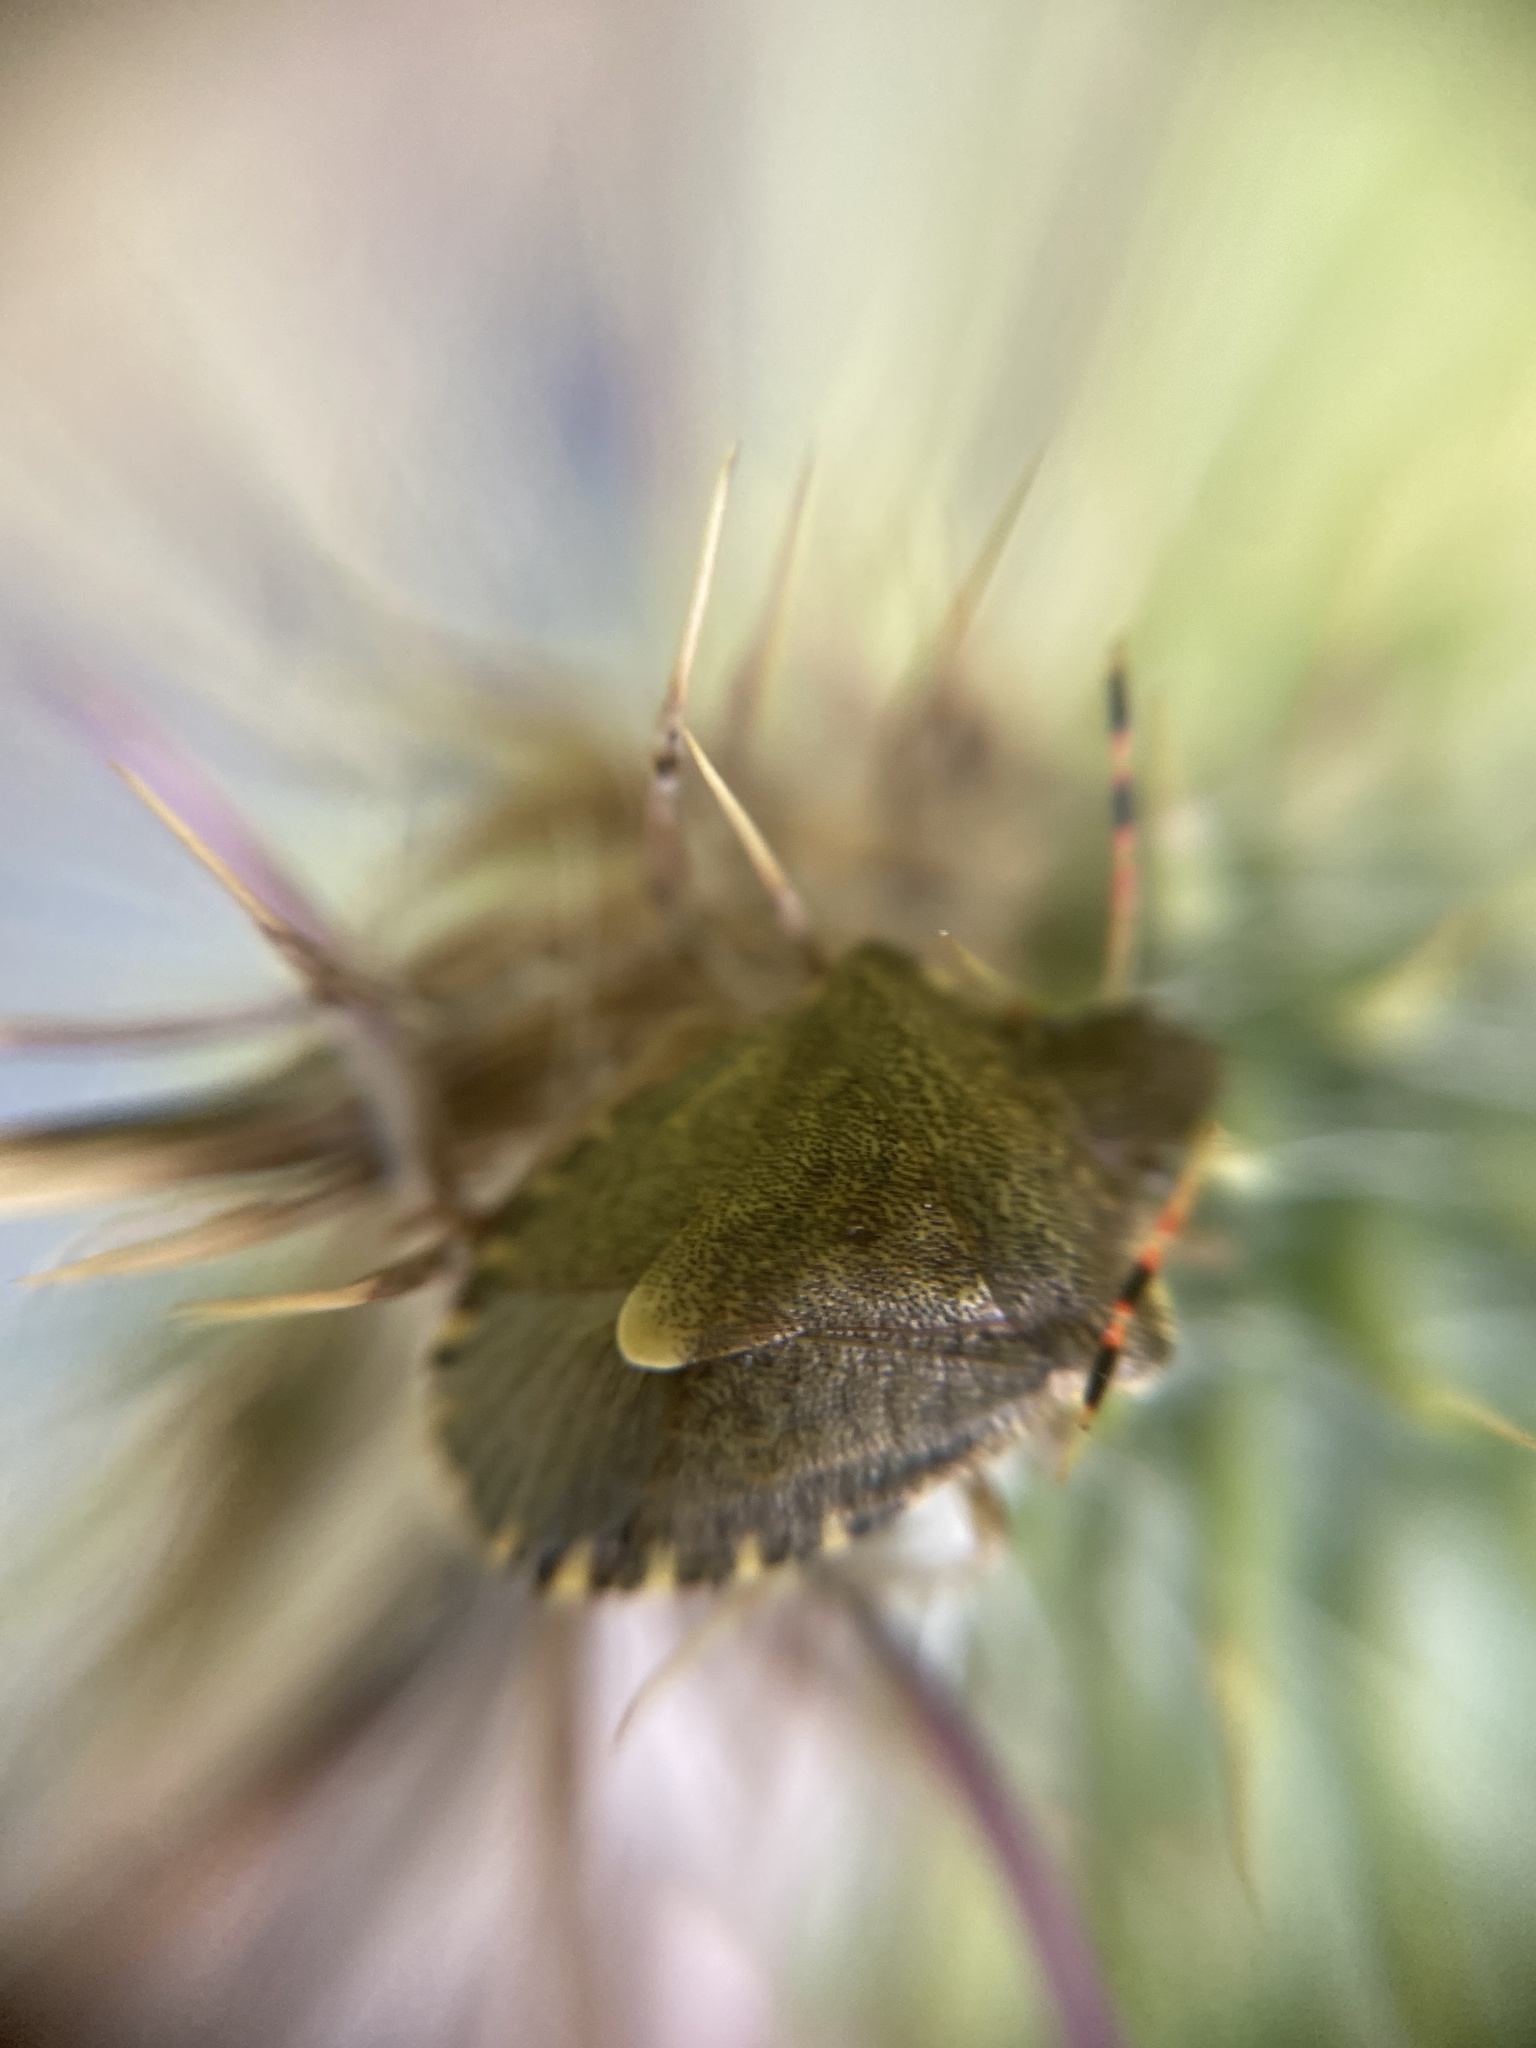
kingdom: Animalia
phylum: Arthropoda
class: Insecta
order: Hemiptera
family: Pentatomidae
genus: Holcostethus
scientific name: Holcostethus strictus
